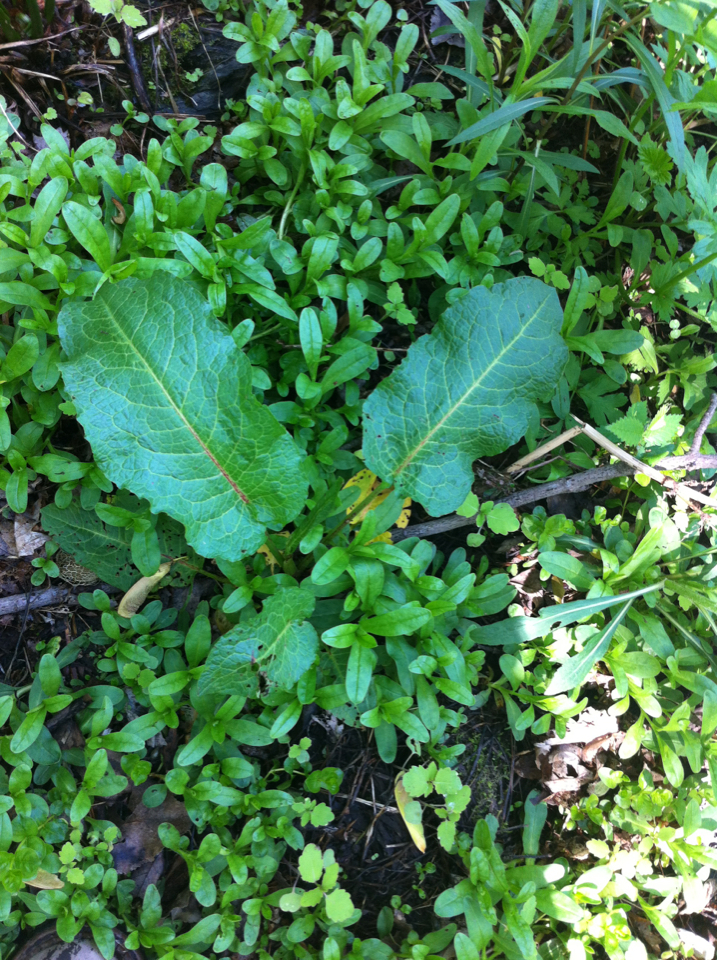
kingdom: Plantae
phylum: Tracheophyta
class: Magnoliopsida
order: Caryophyllales
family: Polygonaceae
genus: Rumex
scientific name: Rumex obtusifolius
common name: Bitter dock
